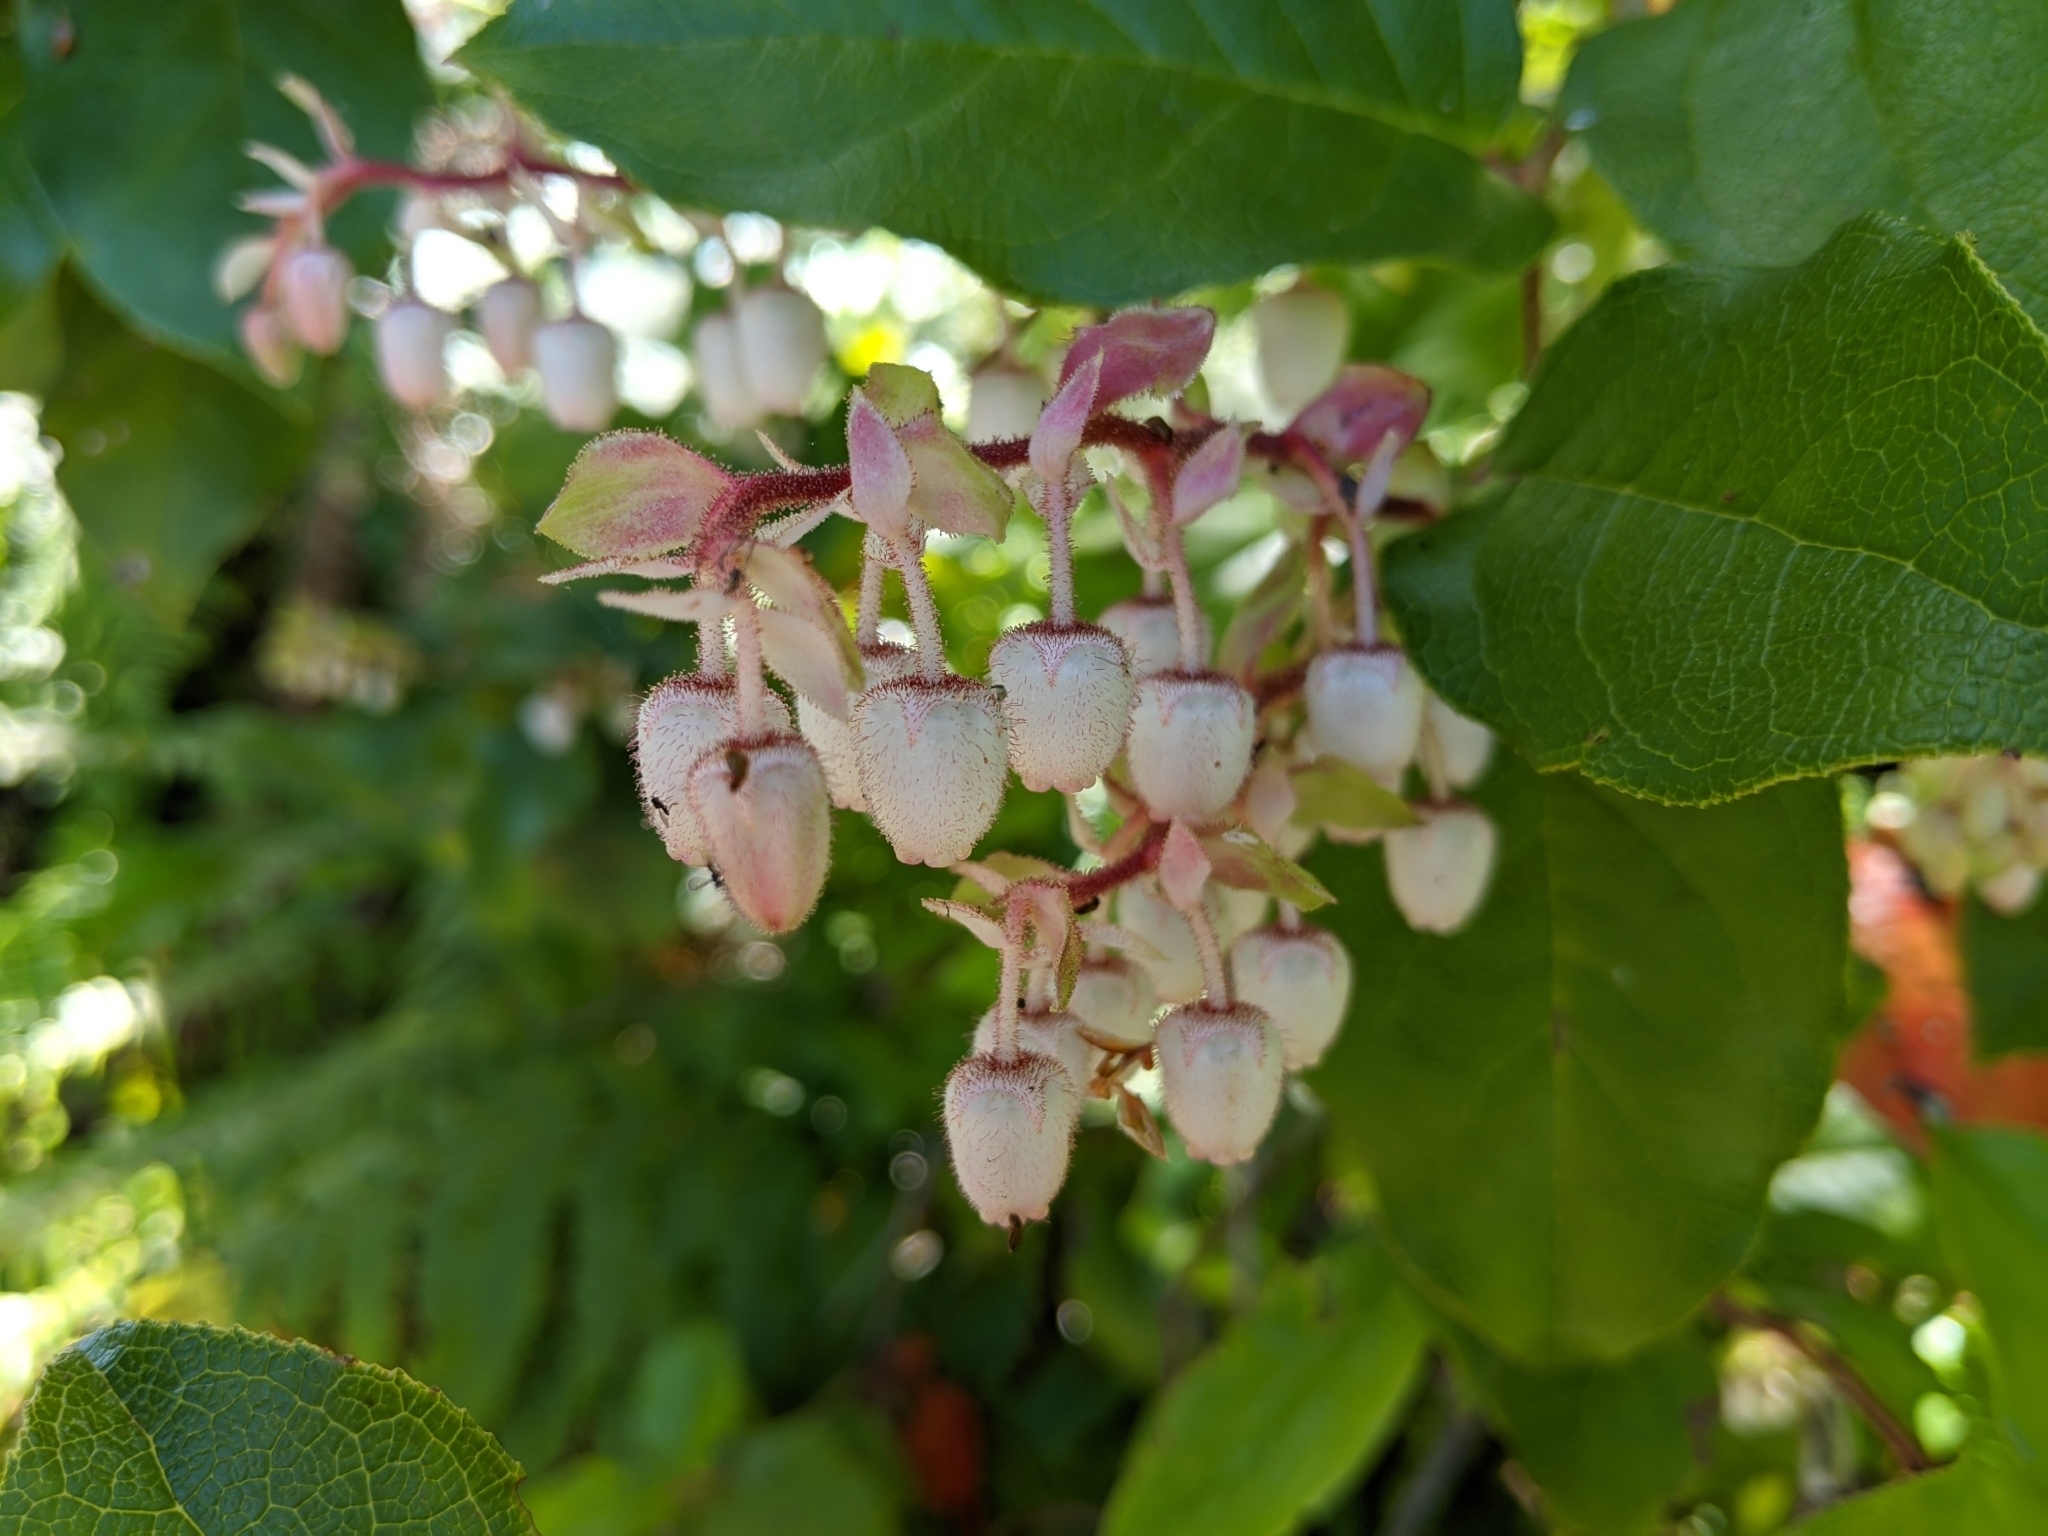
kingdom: Plantae
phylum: Tracheophyta
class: Magnoliopsida
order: Ericales
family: Ericaceae
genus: Gaultheria
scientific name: Gaultheria shallon
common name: Shallon
